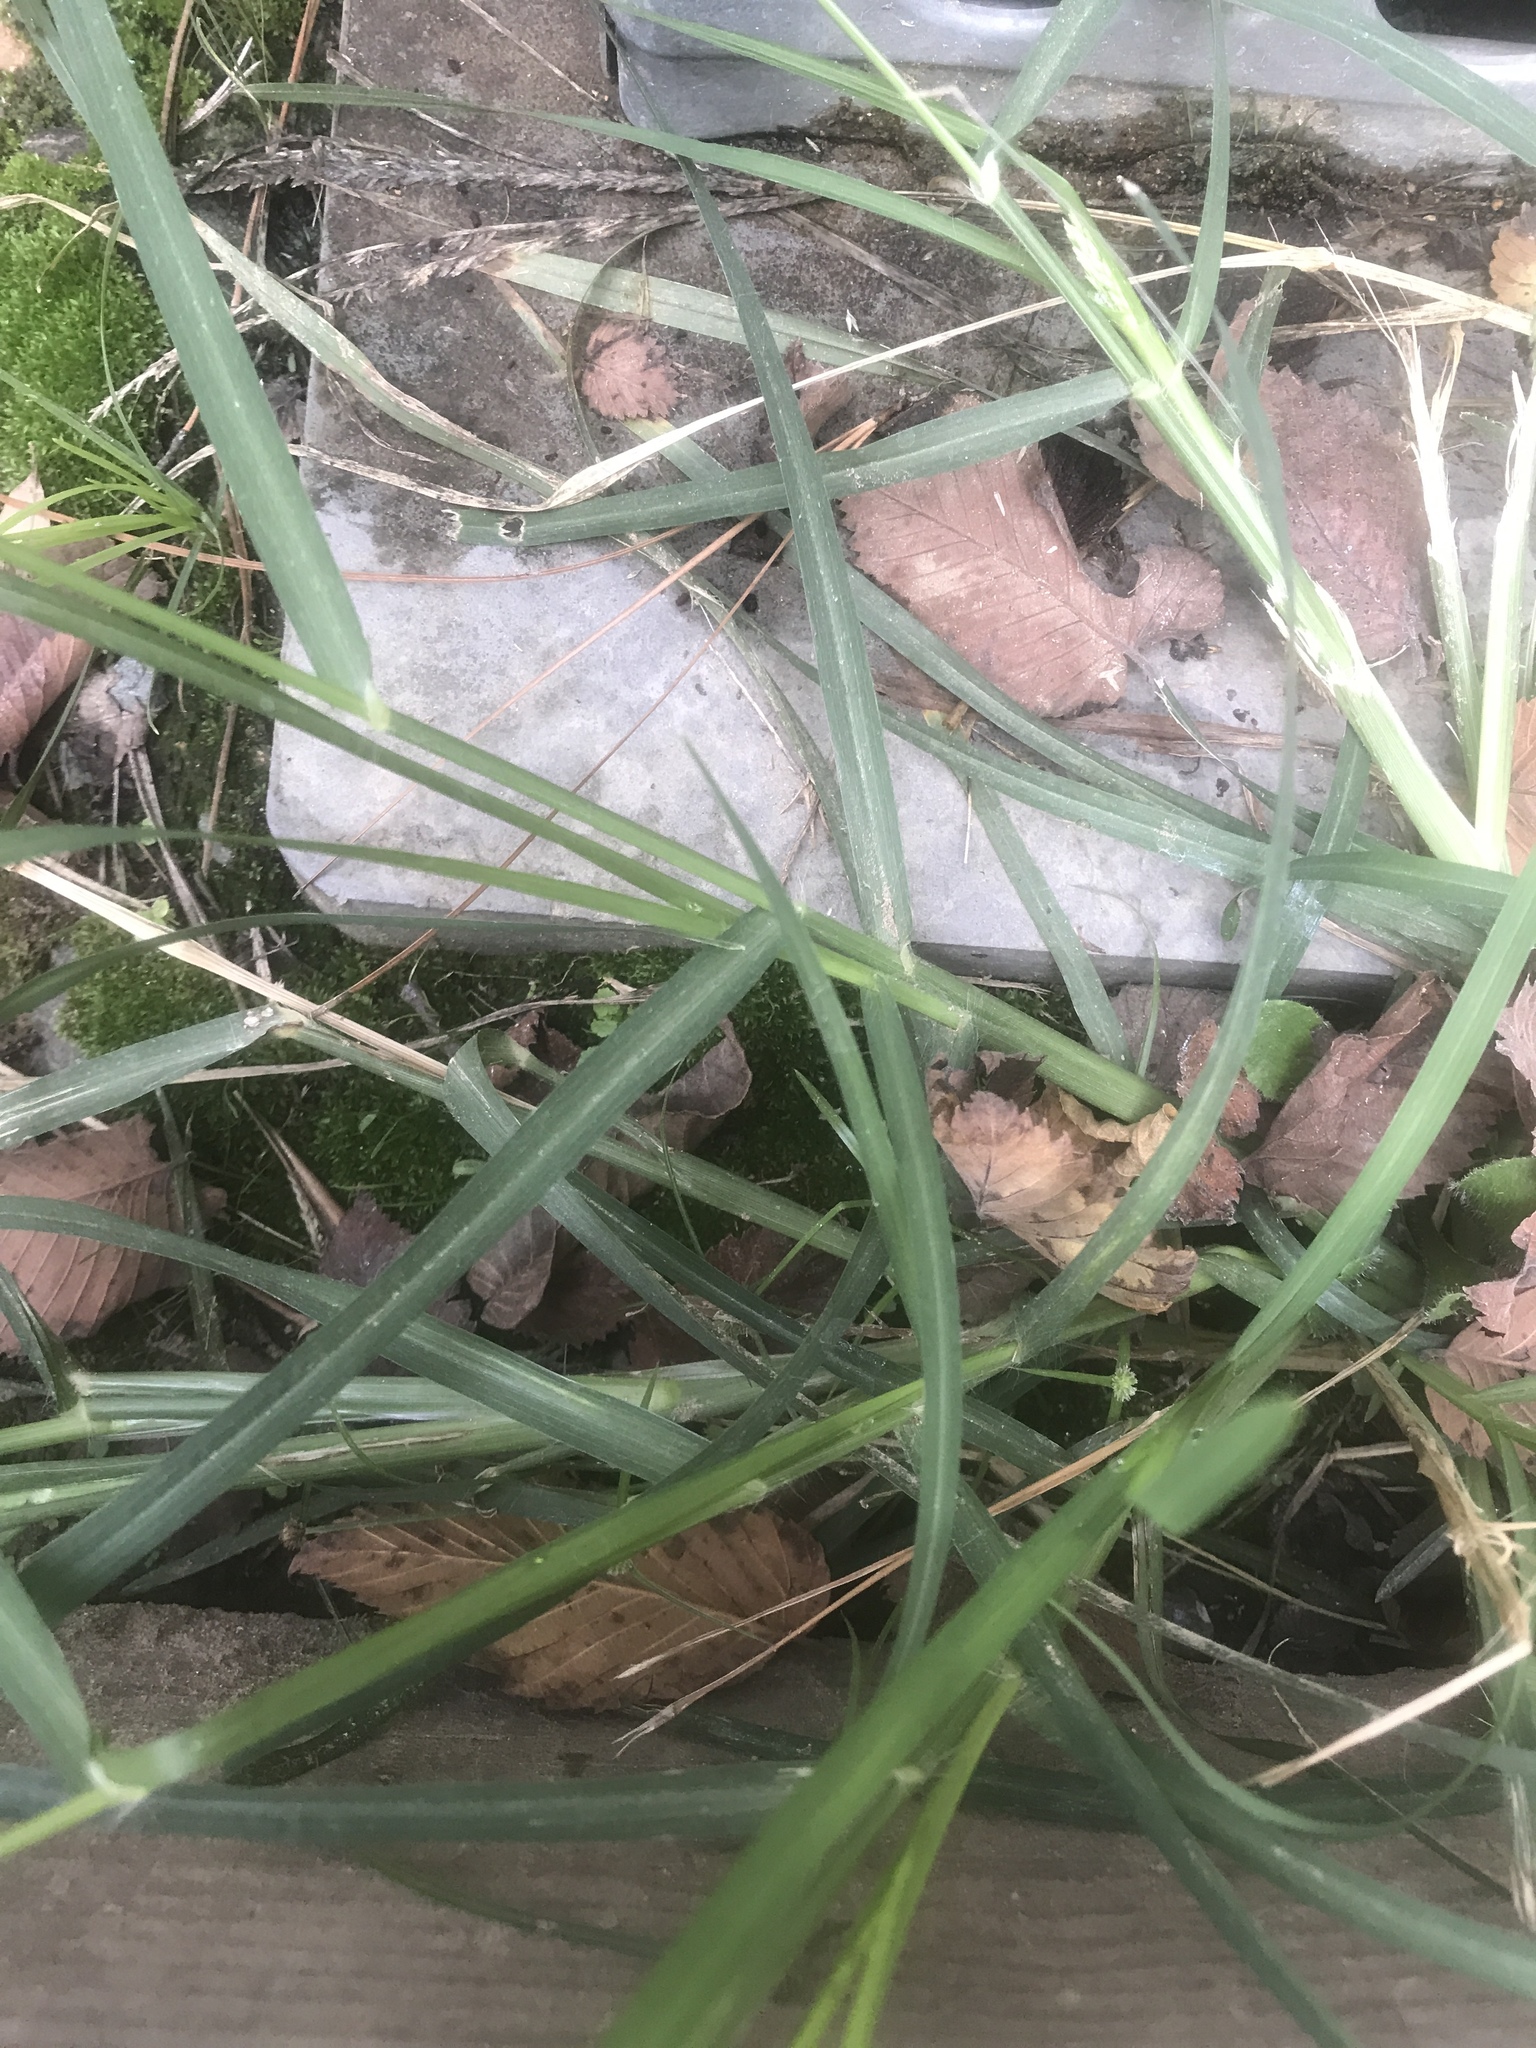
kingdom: Plantae
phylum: Tracheophyta
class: Liliopsida
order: Poales
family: Poaceae
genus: Eleusine
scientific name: Eleusine indica
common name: Yard-grass
